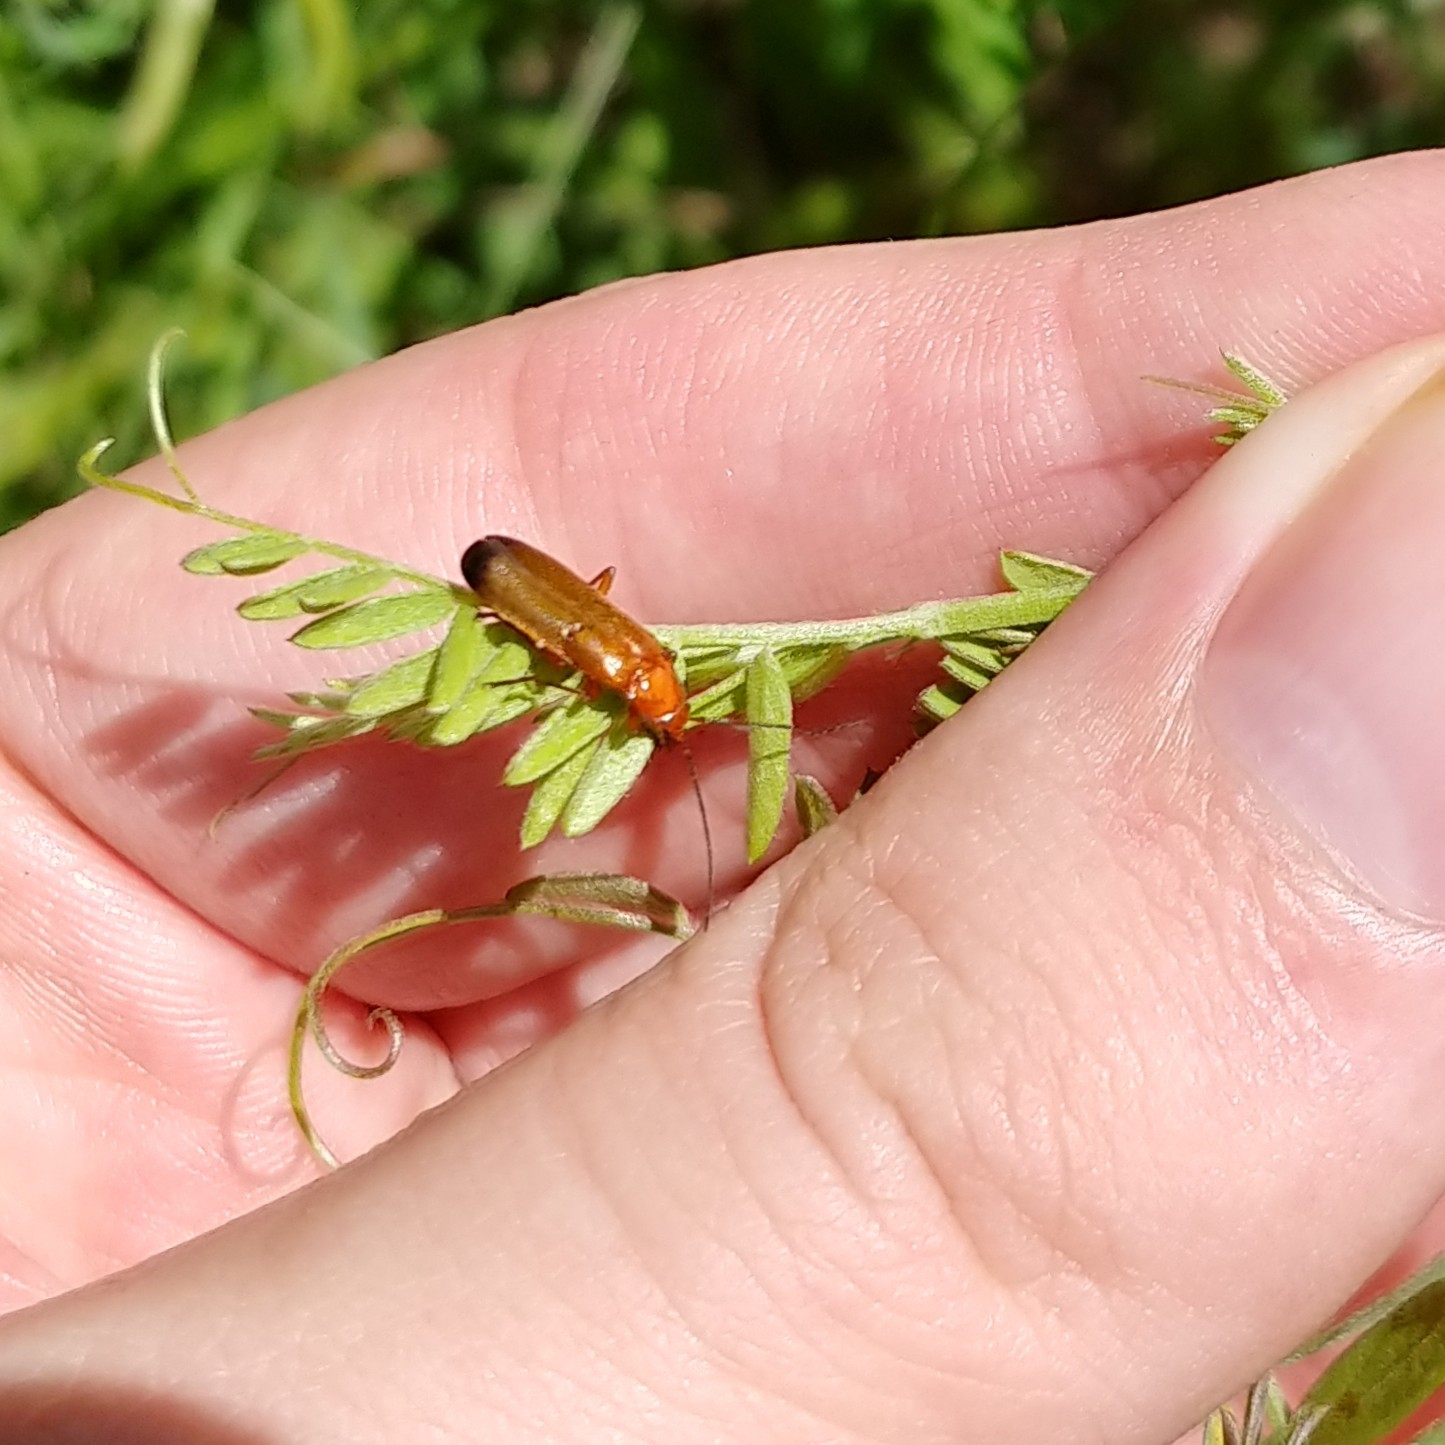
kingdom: Animalia
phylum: Arthropoda
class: Insecta
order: Coleoptera
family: Cantharidae
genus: Rhagonycha
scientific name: Rhagonycha fulva
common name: Common red soldier beetle
